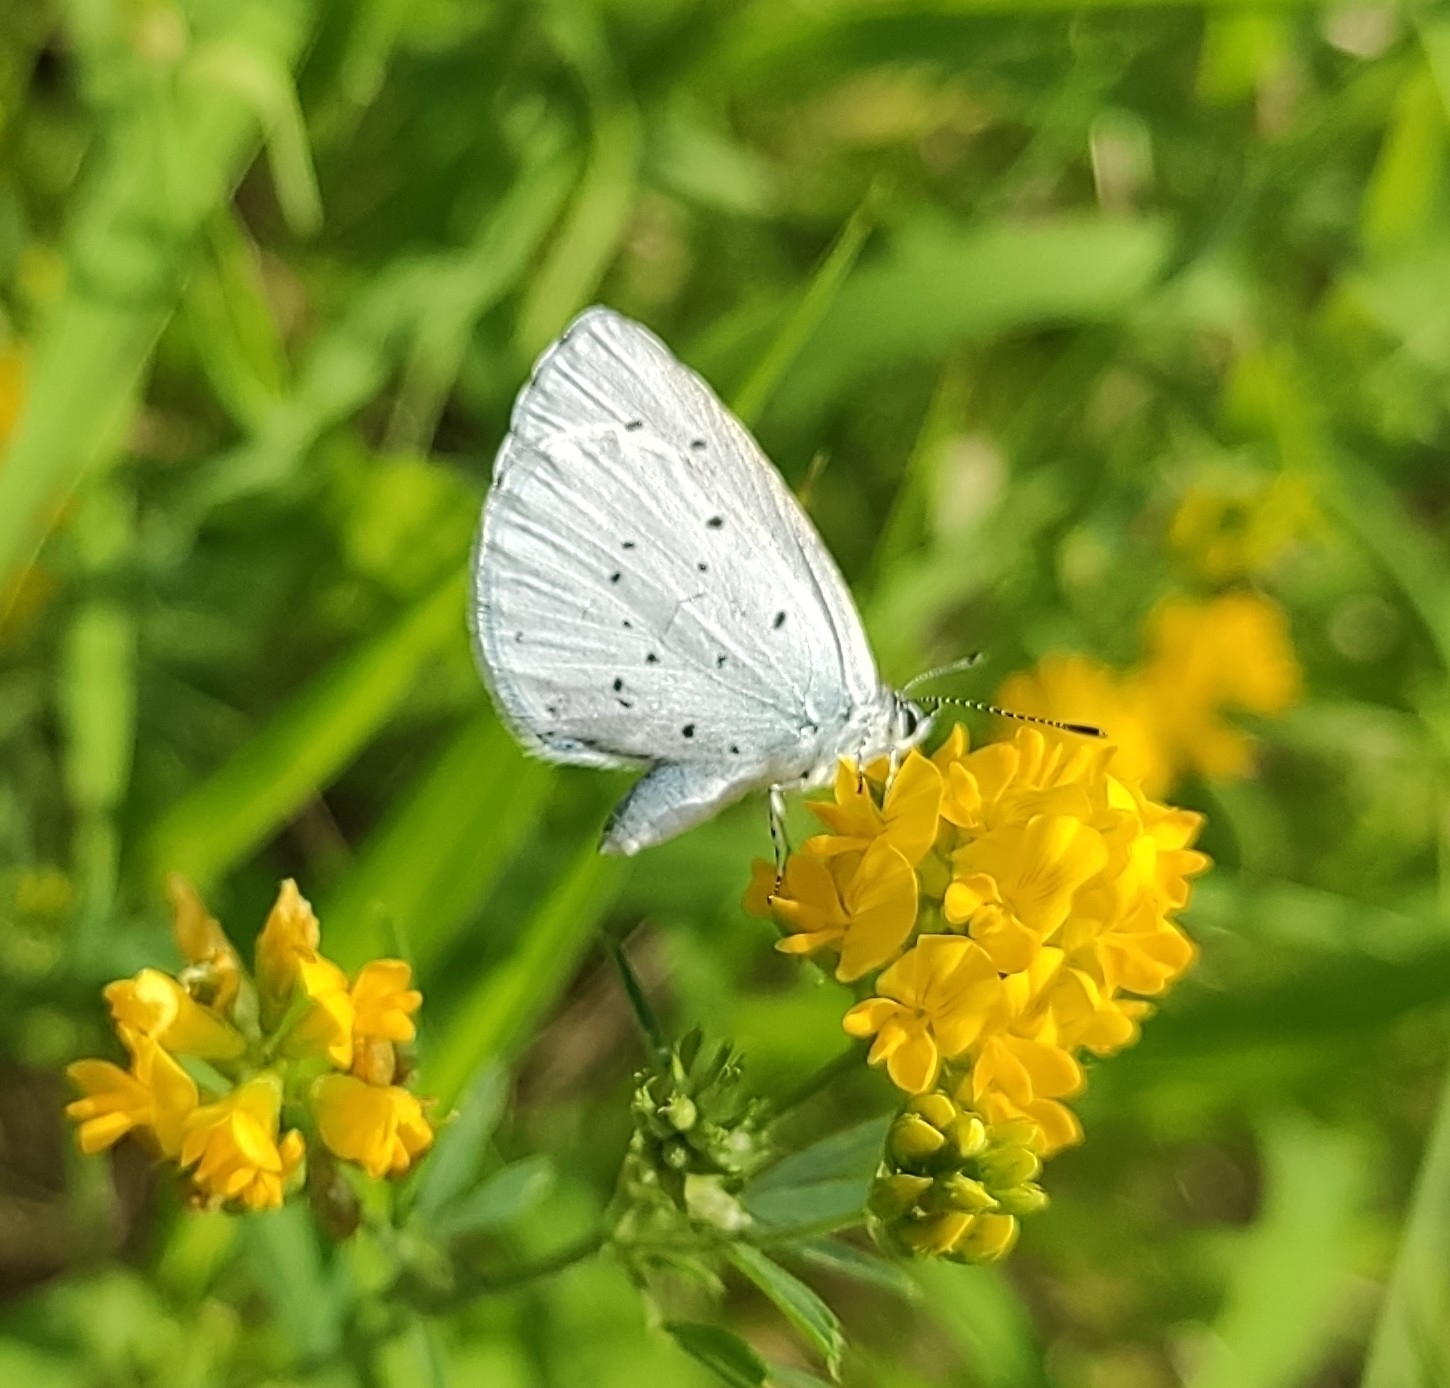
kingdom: Animalia
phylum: Arthropoda
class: Insecta
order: Lepidoptera
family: Lycaenidae
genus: Celastrina
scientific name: Celastrina argiolus
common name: Holly blue
